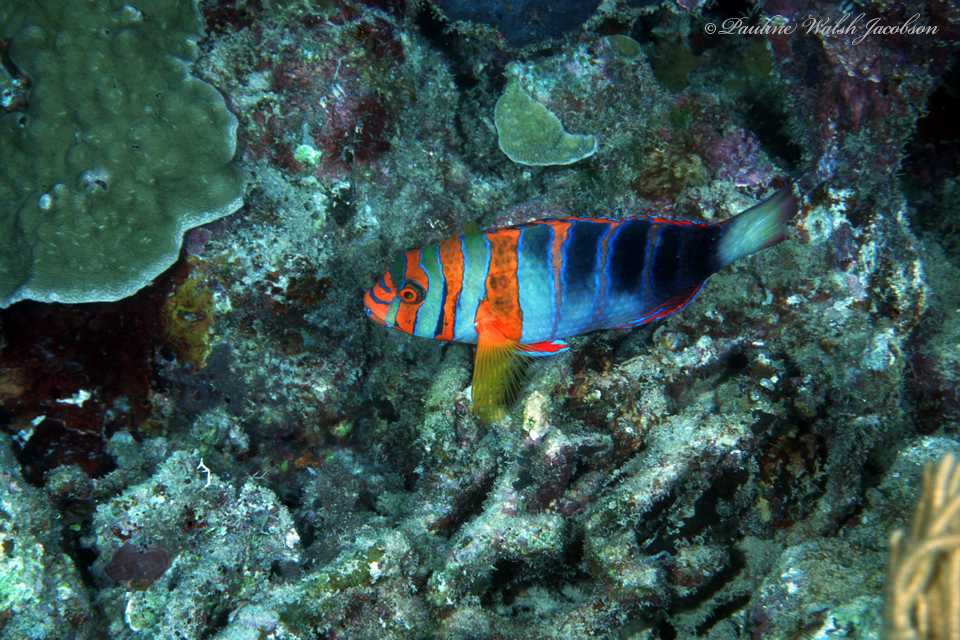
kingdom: Animalia
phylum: Chordata
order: Perciformes
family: Labridae
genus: Choerodon
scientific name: Choerodon fasciatus
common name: Harlequin tuskfish
